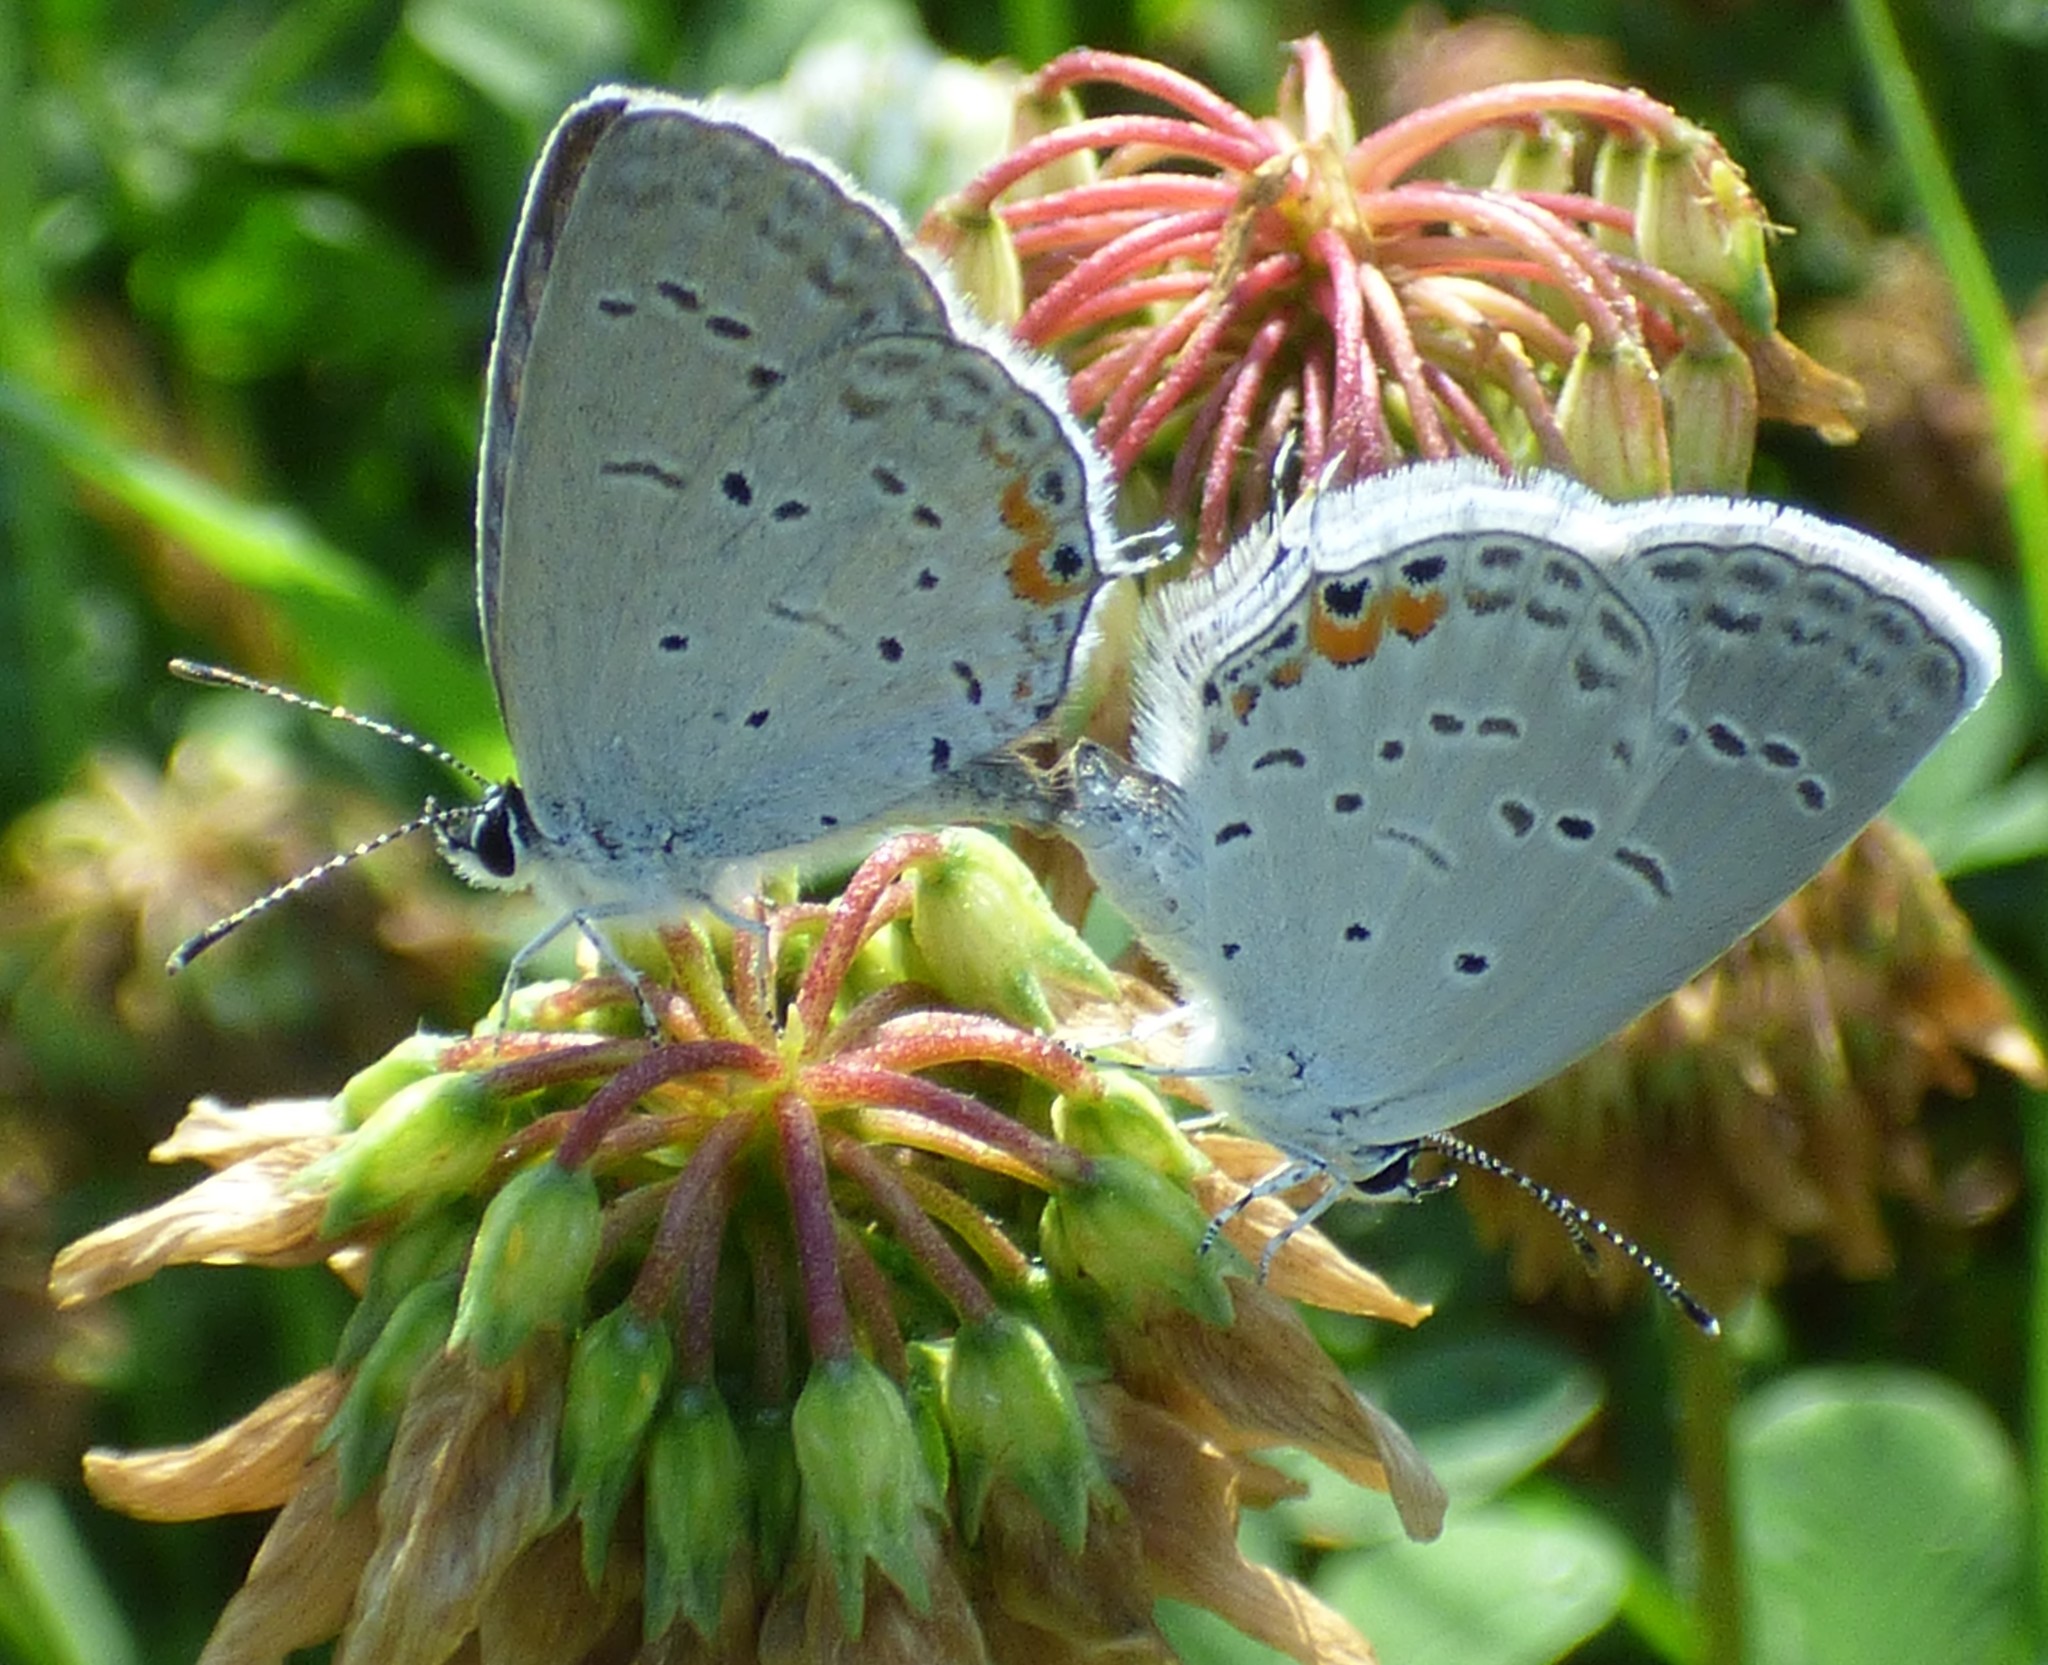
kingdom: Animalia
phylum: Arthropoda
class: Insecta
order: Lepidoptera
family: Lycaenidae
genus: Elkalyce
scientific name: Elkalyce comyntas
